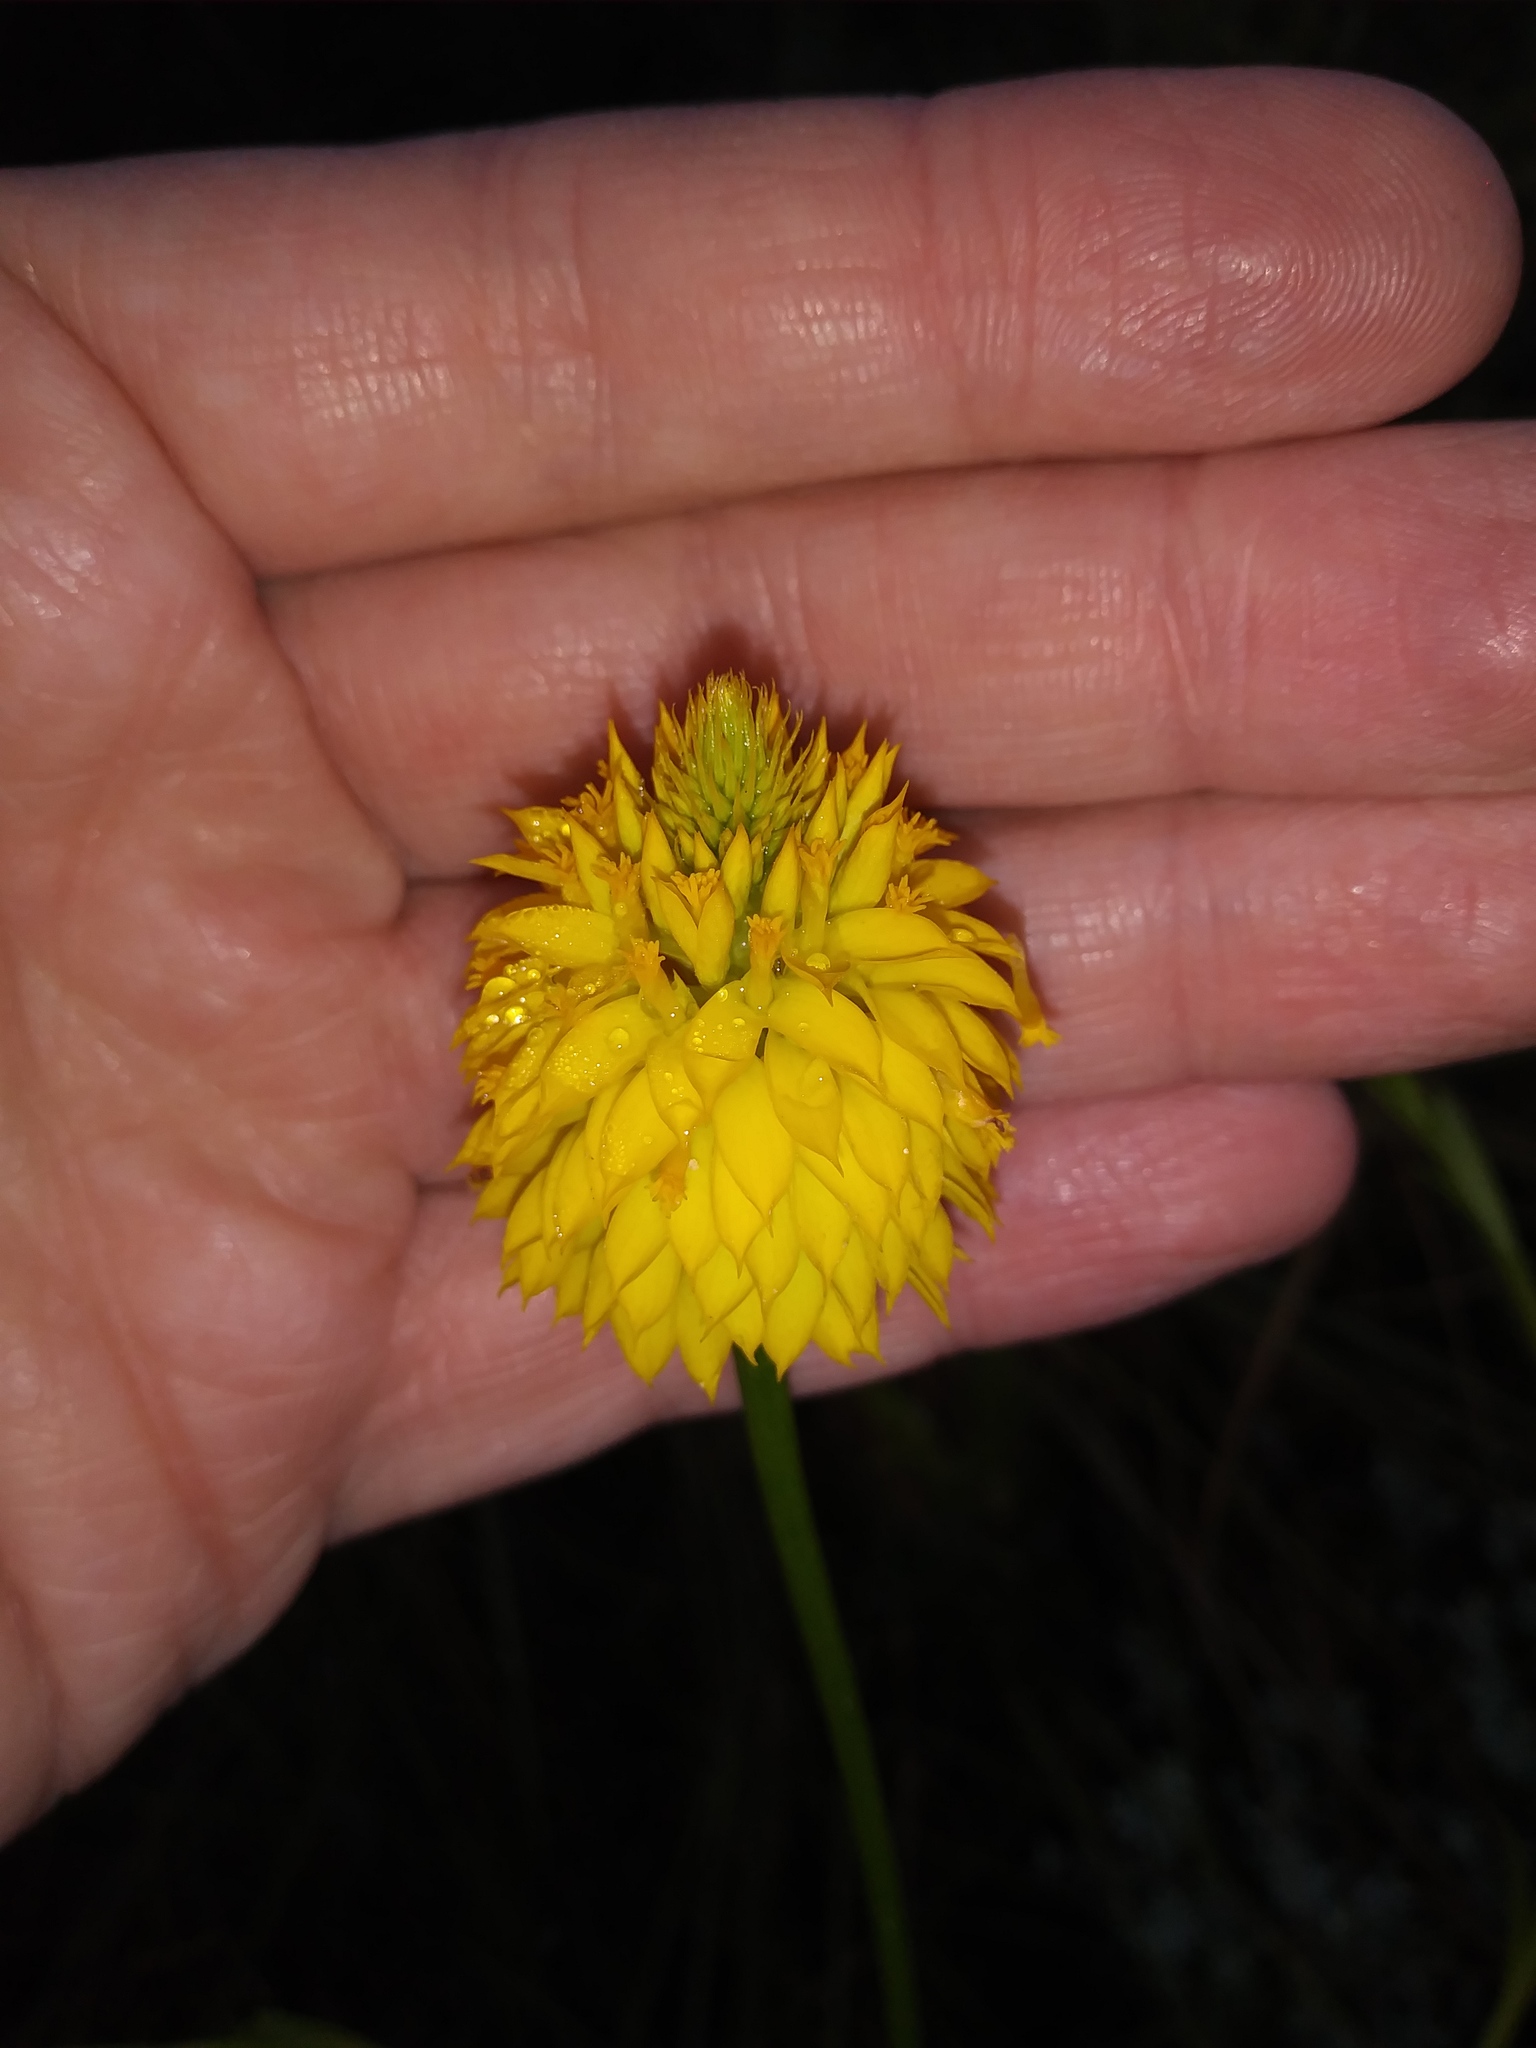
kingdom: Plantae
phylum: Tracheophyta
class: Magnoliopsida
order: Fabales
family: Polygalaceae
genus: Polygala
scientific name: Polygala rugelii
